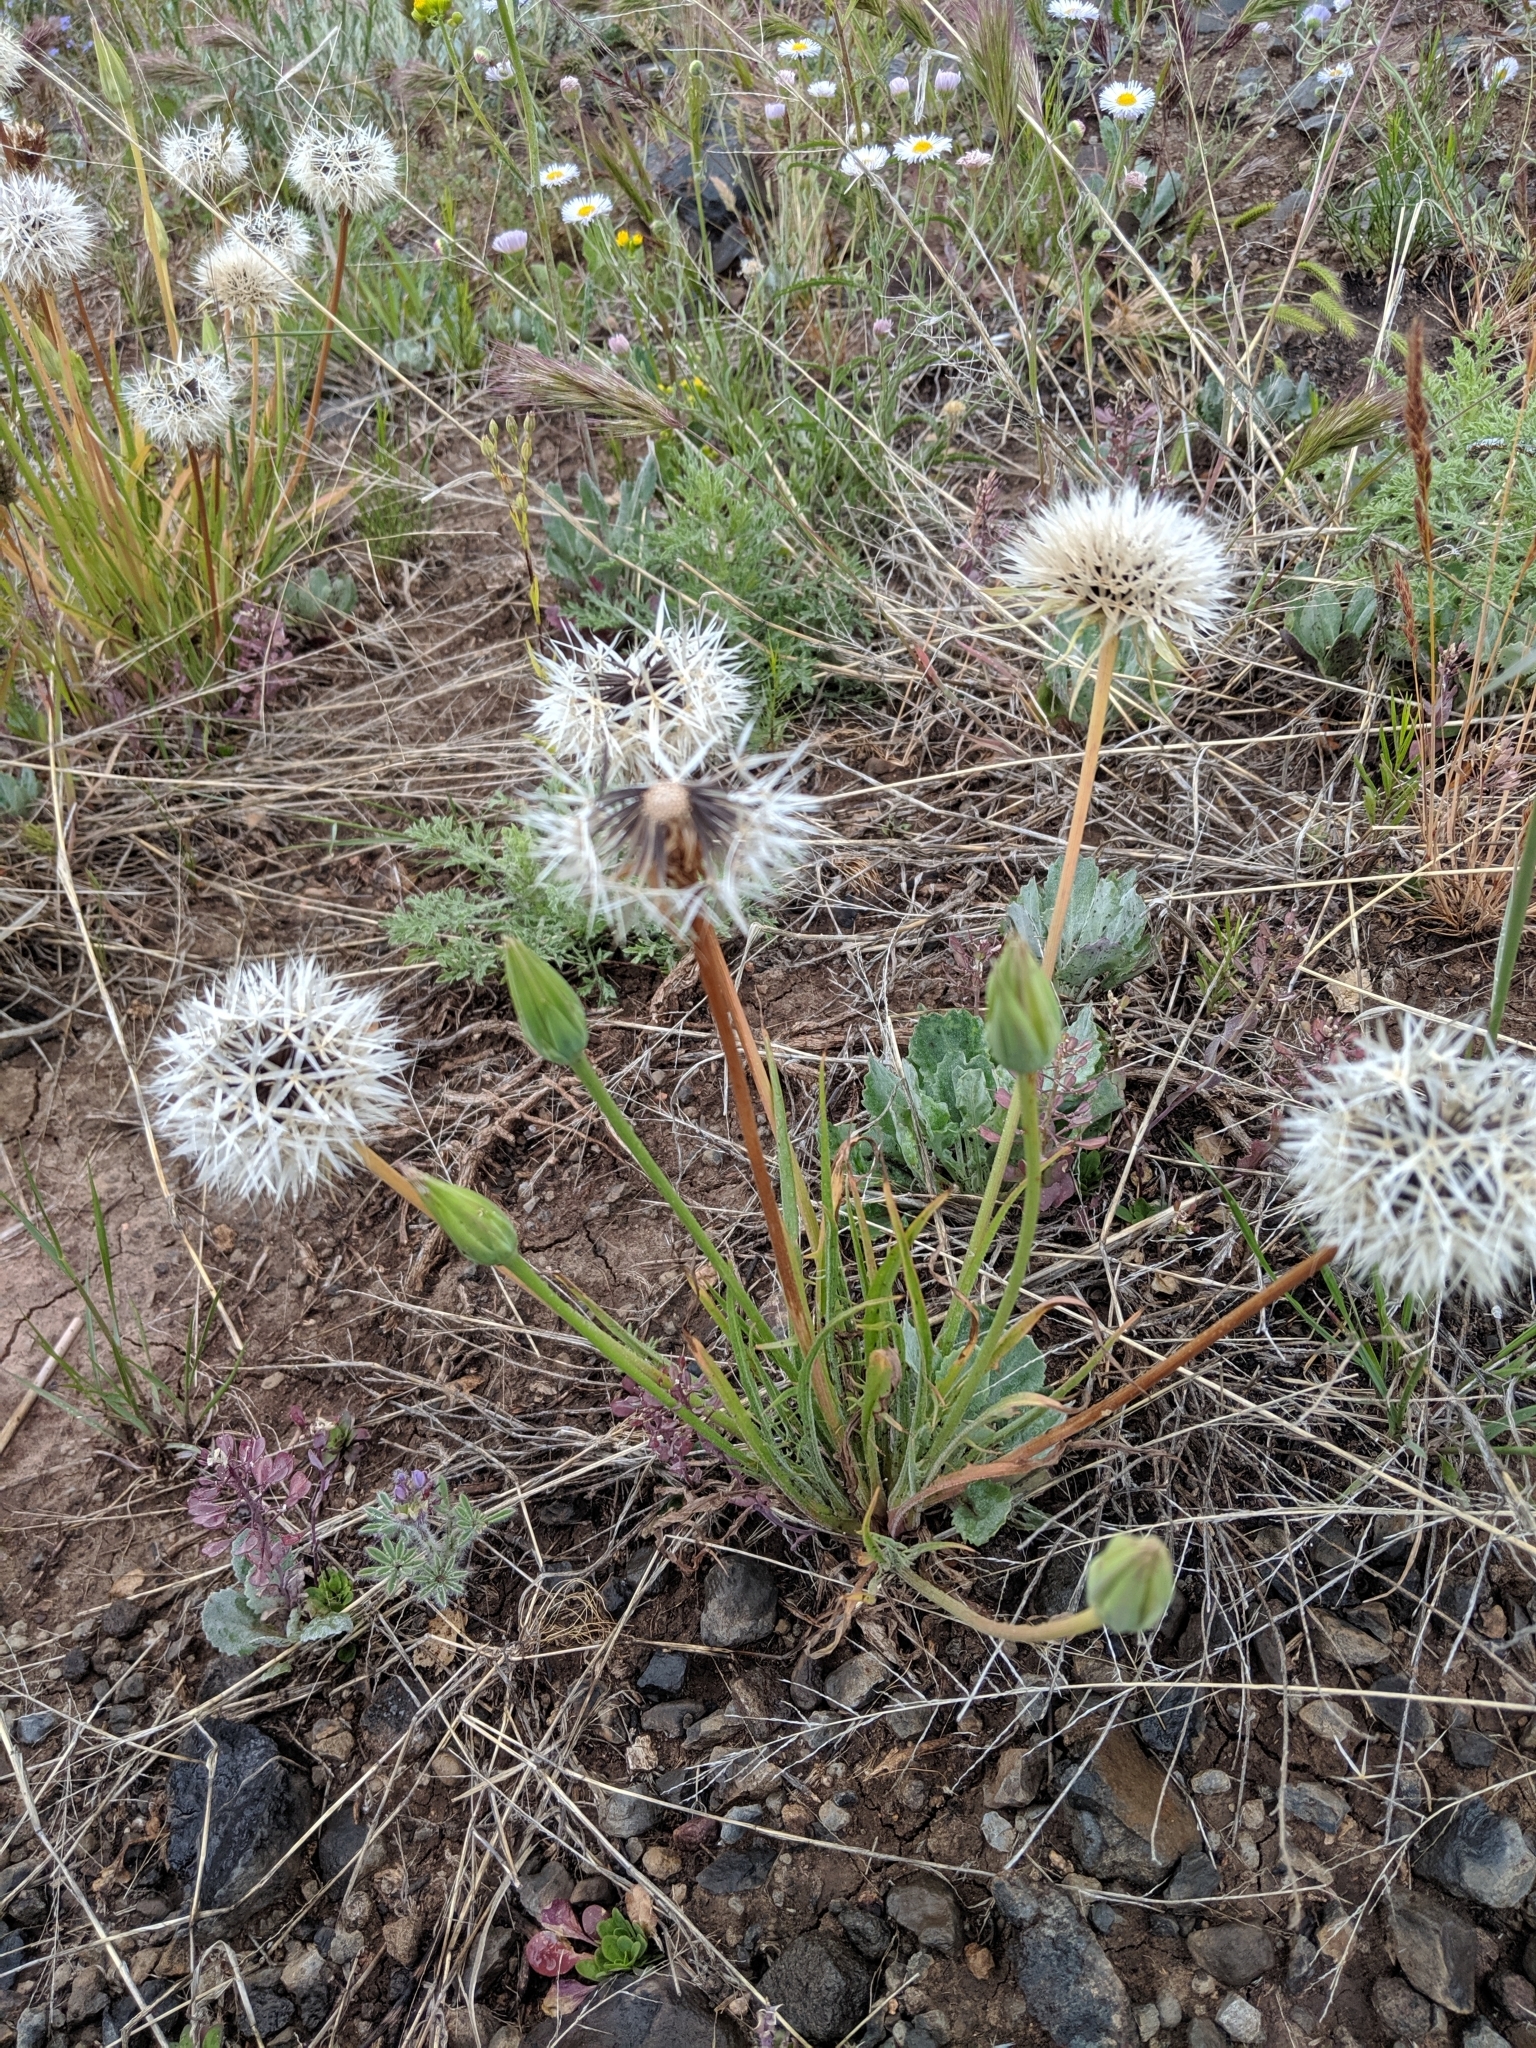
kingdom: Plantae
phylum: Tracheophyta
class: Magnoliopsida
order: Asterales
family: Asteraceae
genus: Microseris
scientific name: Microseris lindleyi
